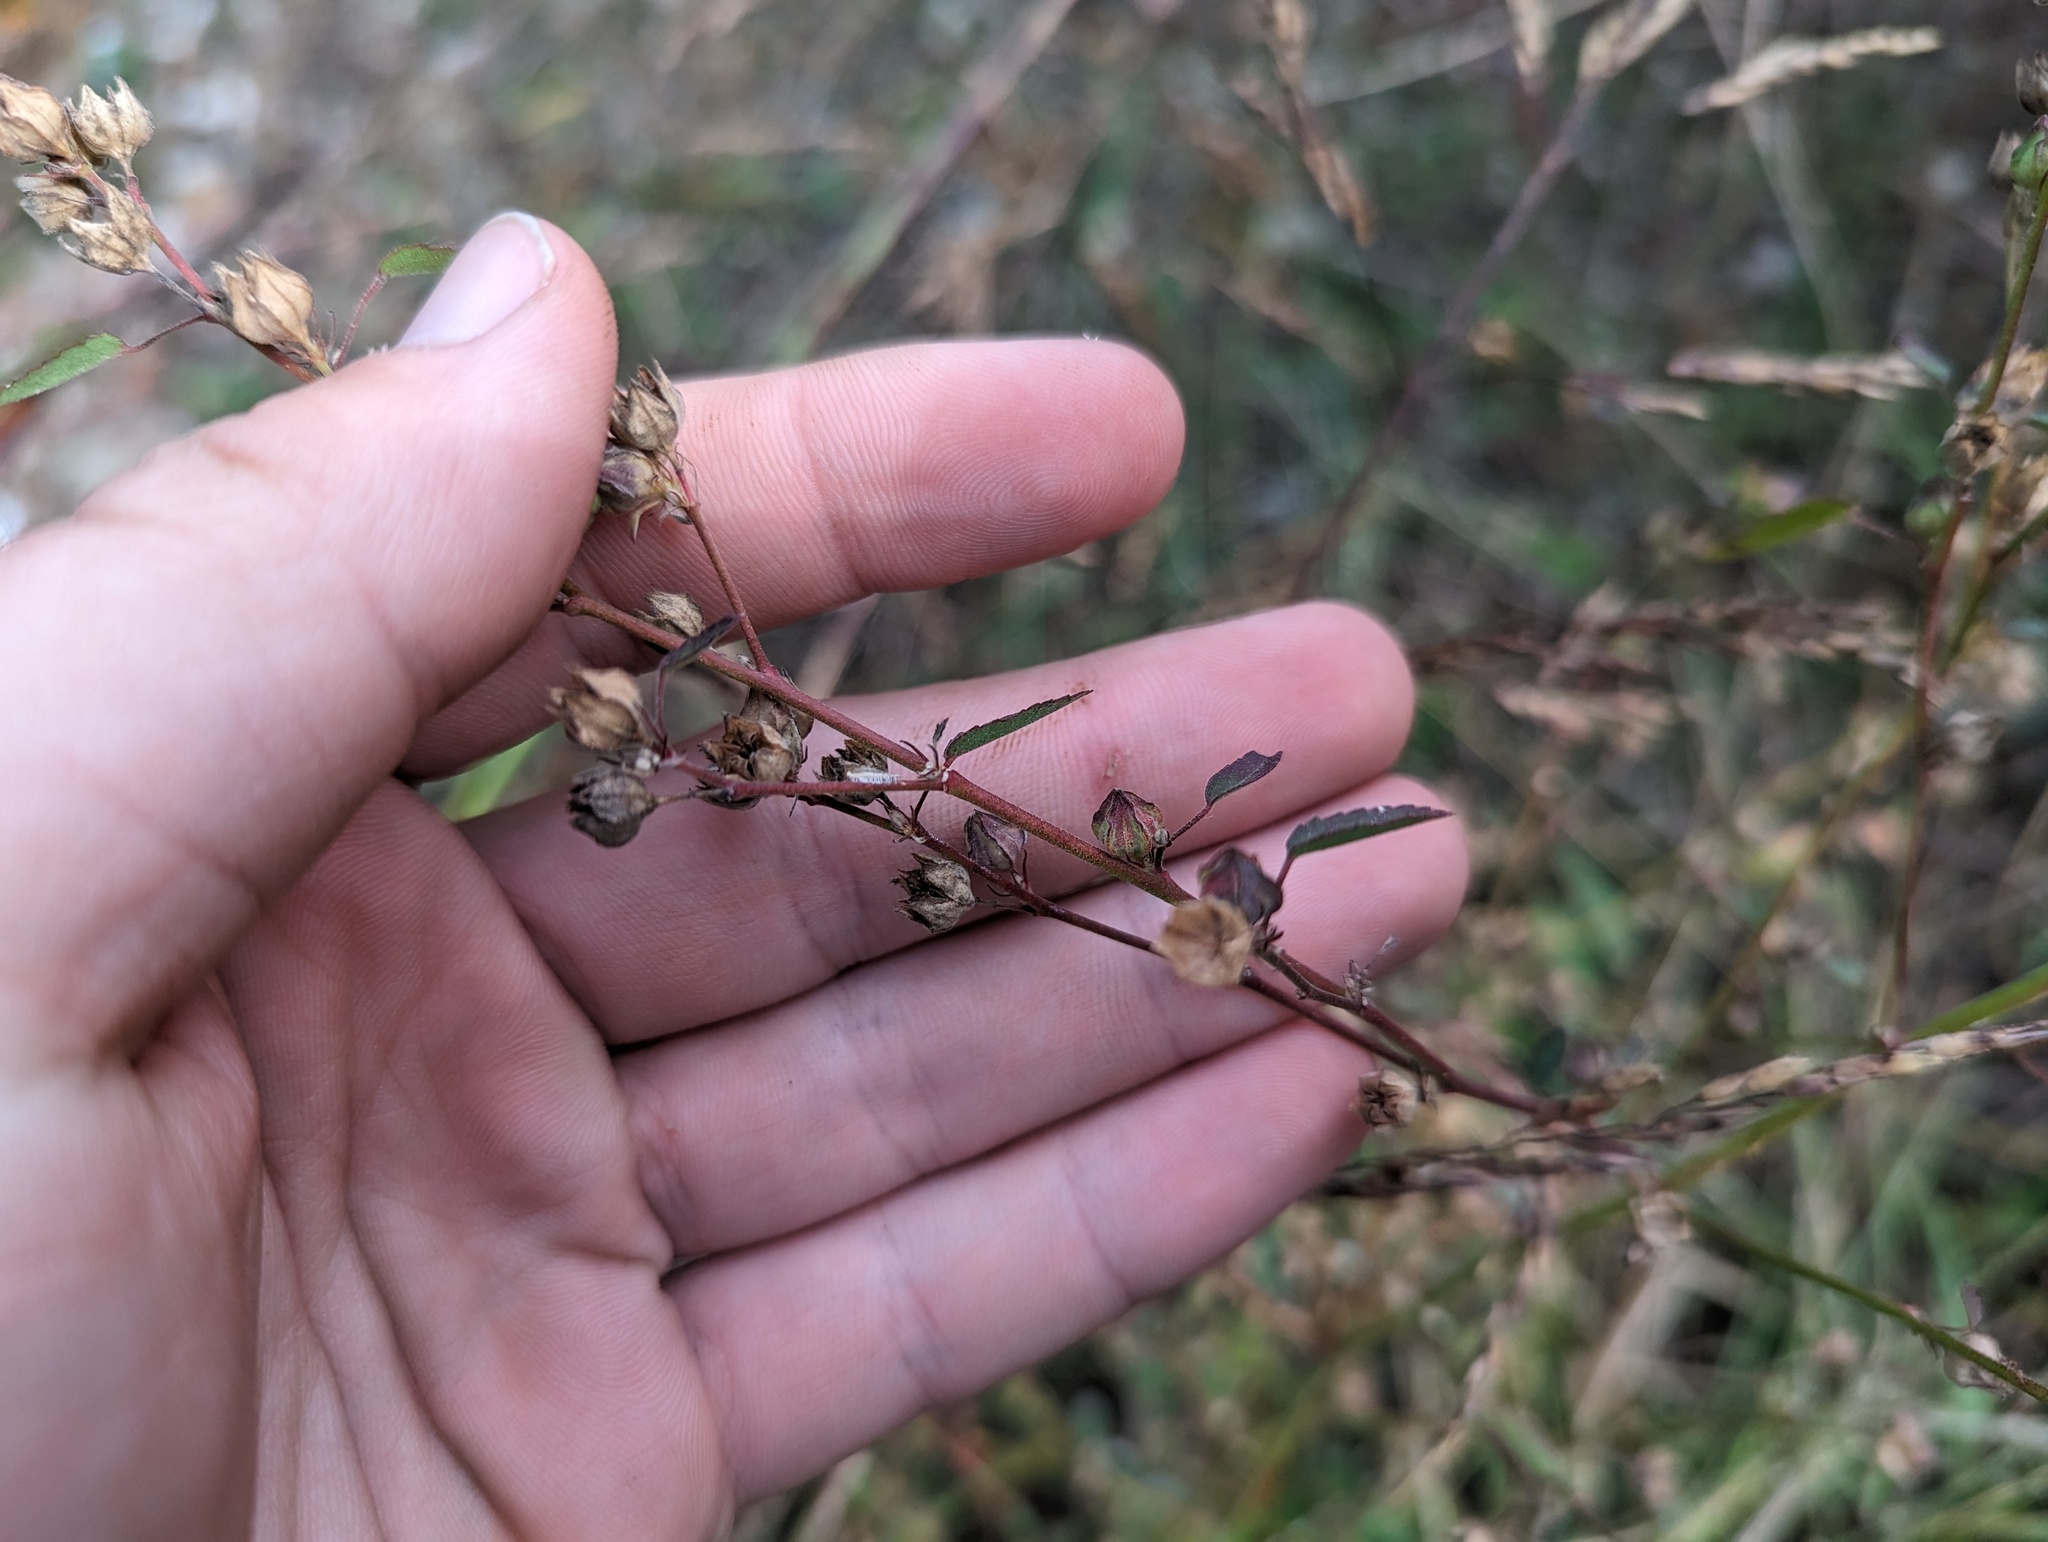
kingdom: Plantae
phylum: Tracheophyta
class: Magnoliopsida
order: Malvales
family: Malvaceae
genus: Sida
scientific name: Sida spinosa
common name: Prickly fanpetals
